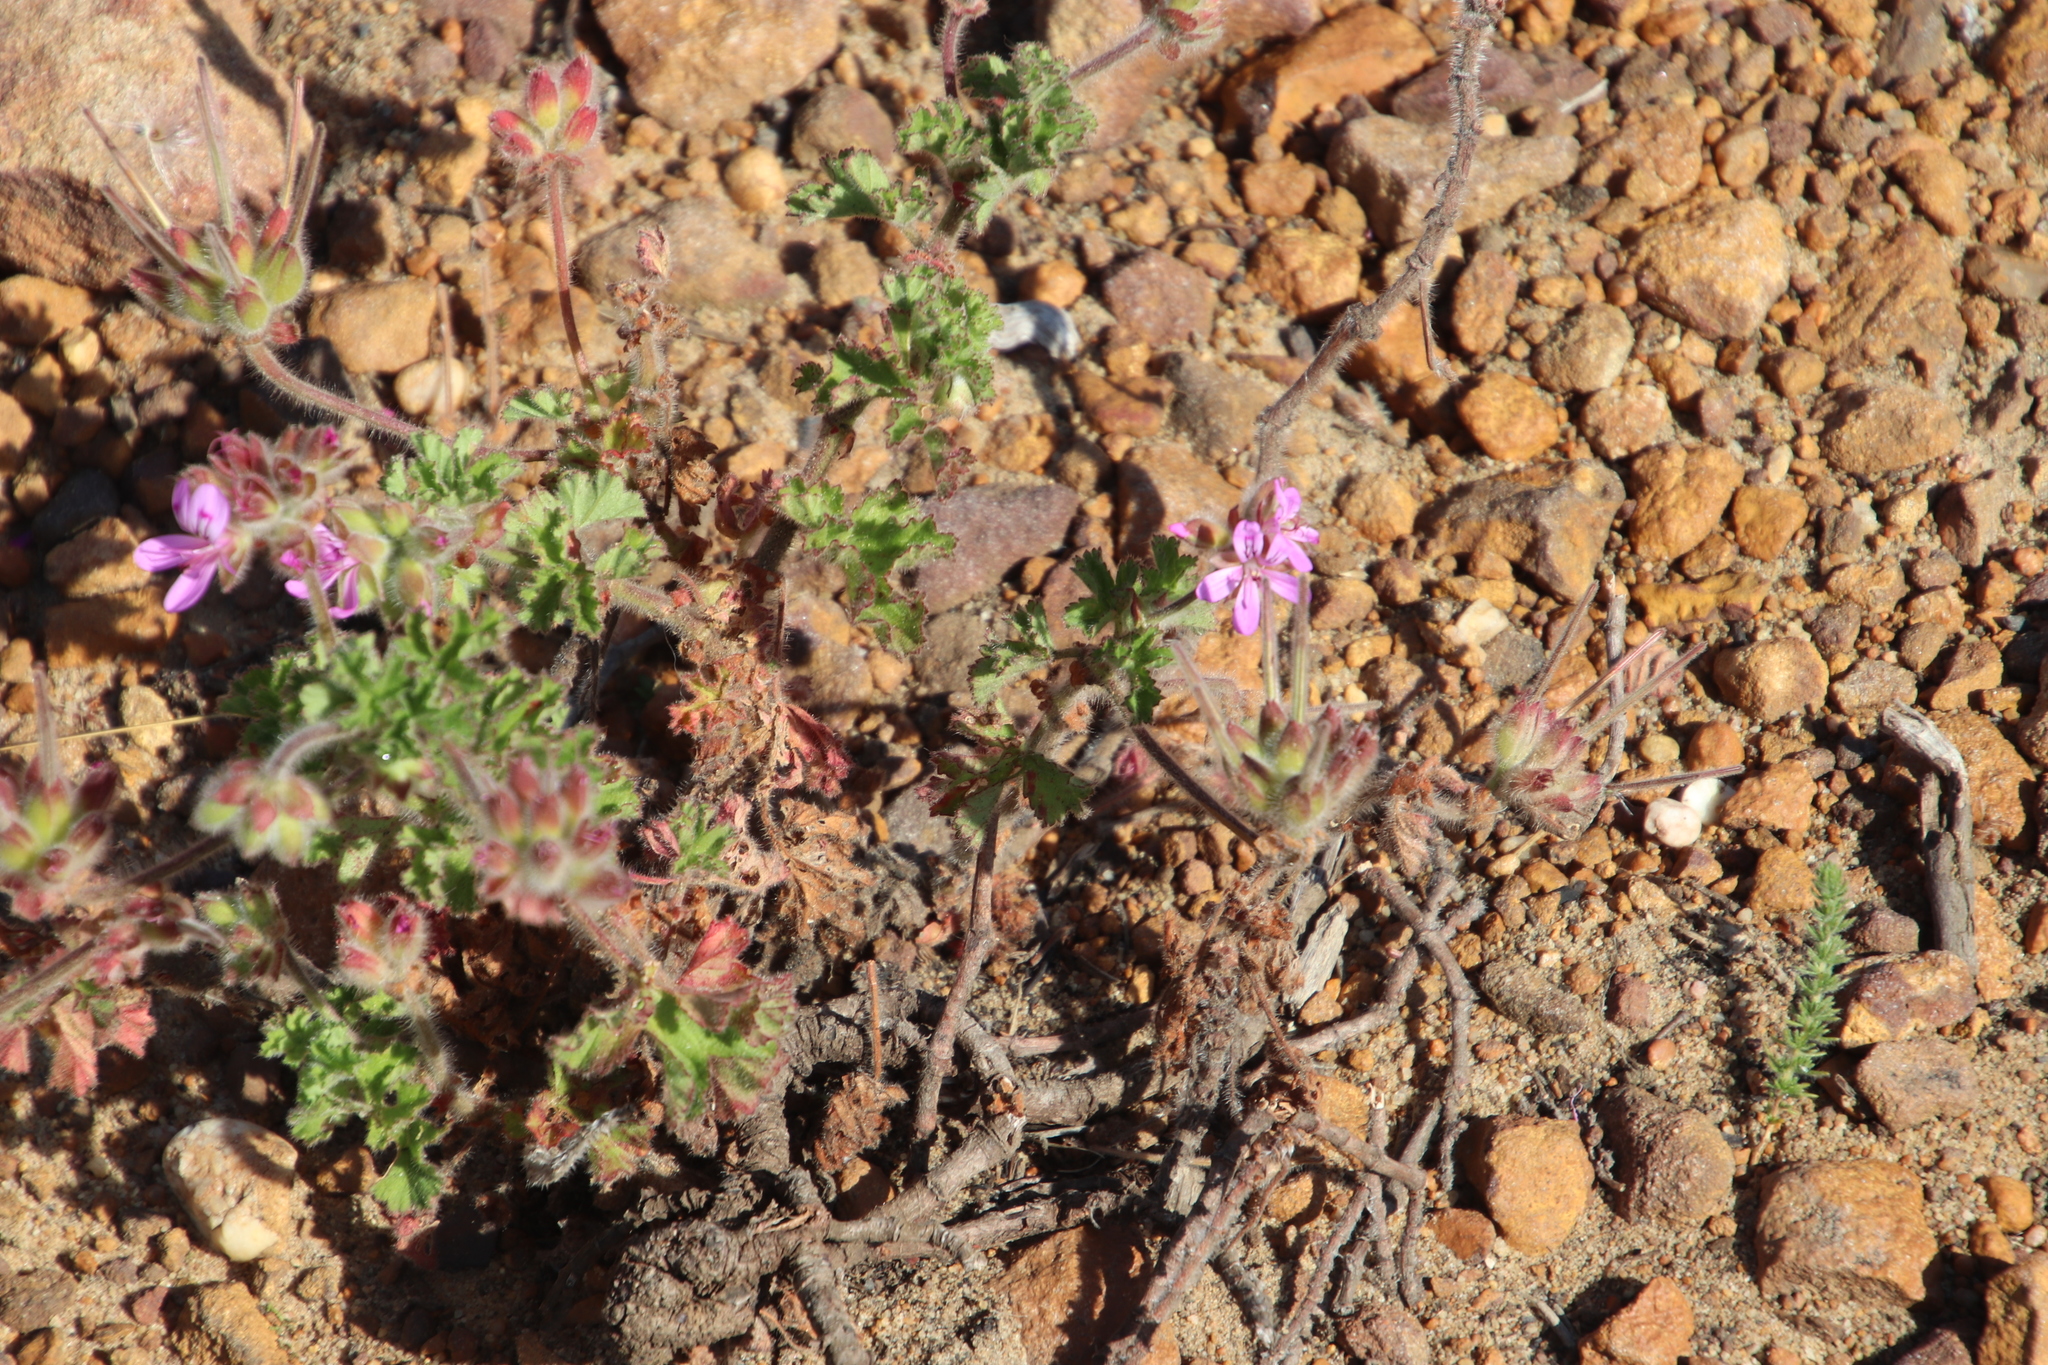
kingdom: Plantae
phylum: Tracheophyta
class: Magnoliopsida
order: Geraniales
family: Geraniaceae
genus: Pelargonium
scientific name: Pelargonium capitatum
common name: Rose scented geranium
